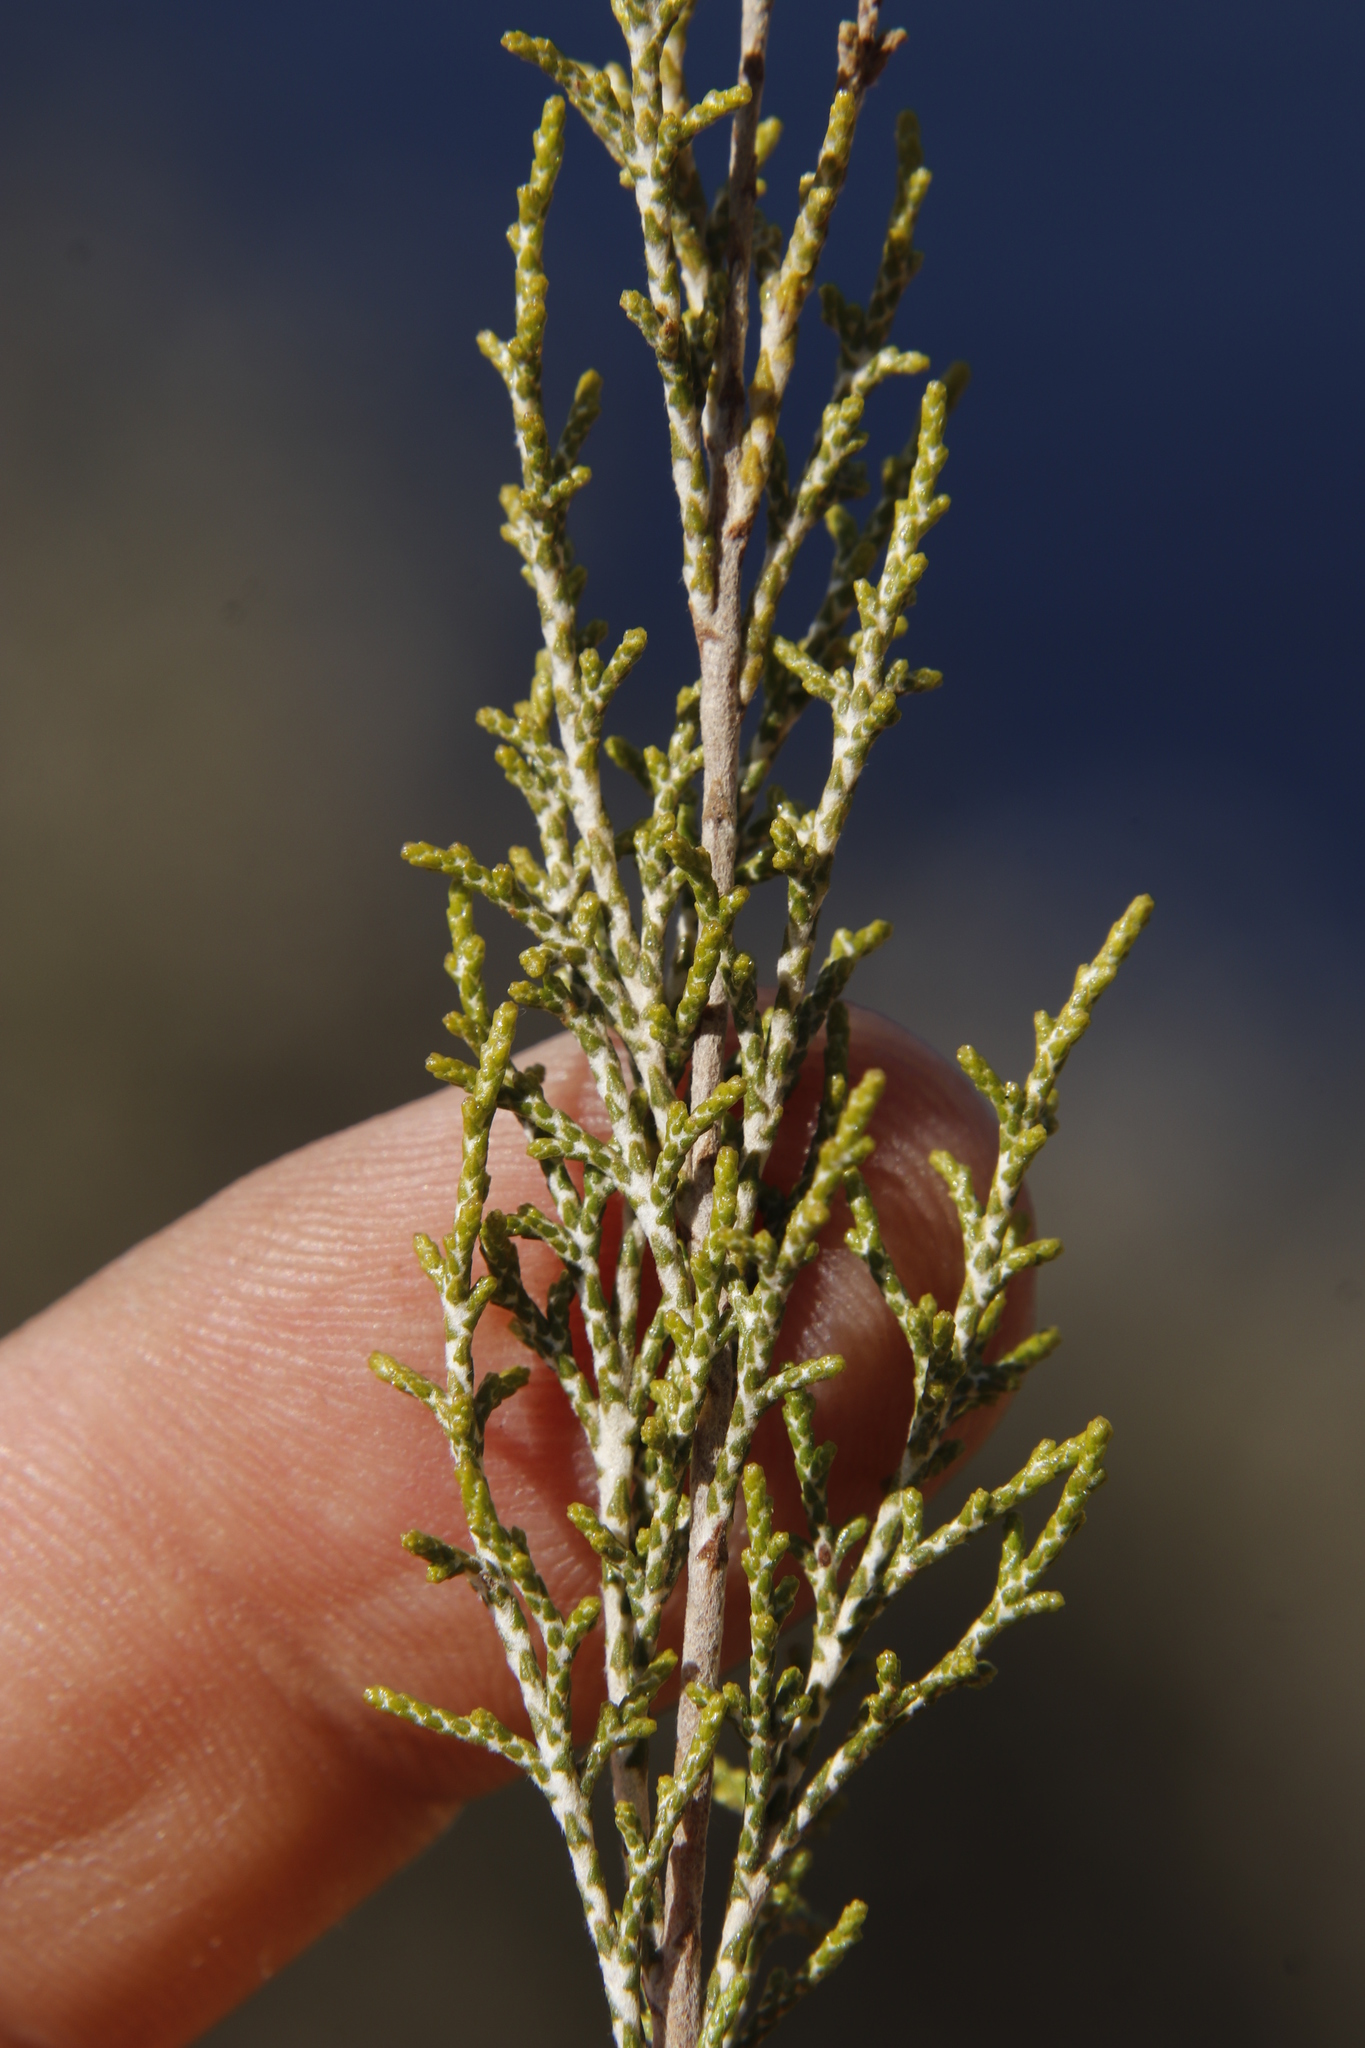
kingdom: Plantae
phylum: Tracheophyta
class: Magnoliopsida
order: Asterales
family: Asteraceae
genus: Dicerothamnus
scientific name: Dicerothamnus rhinocerotis
